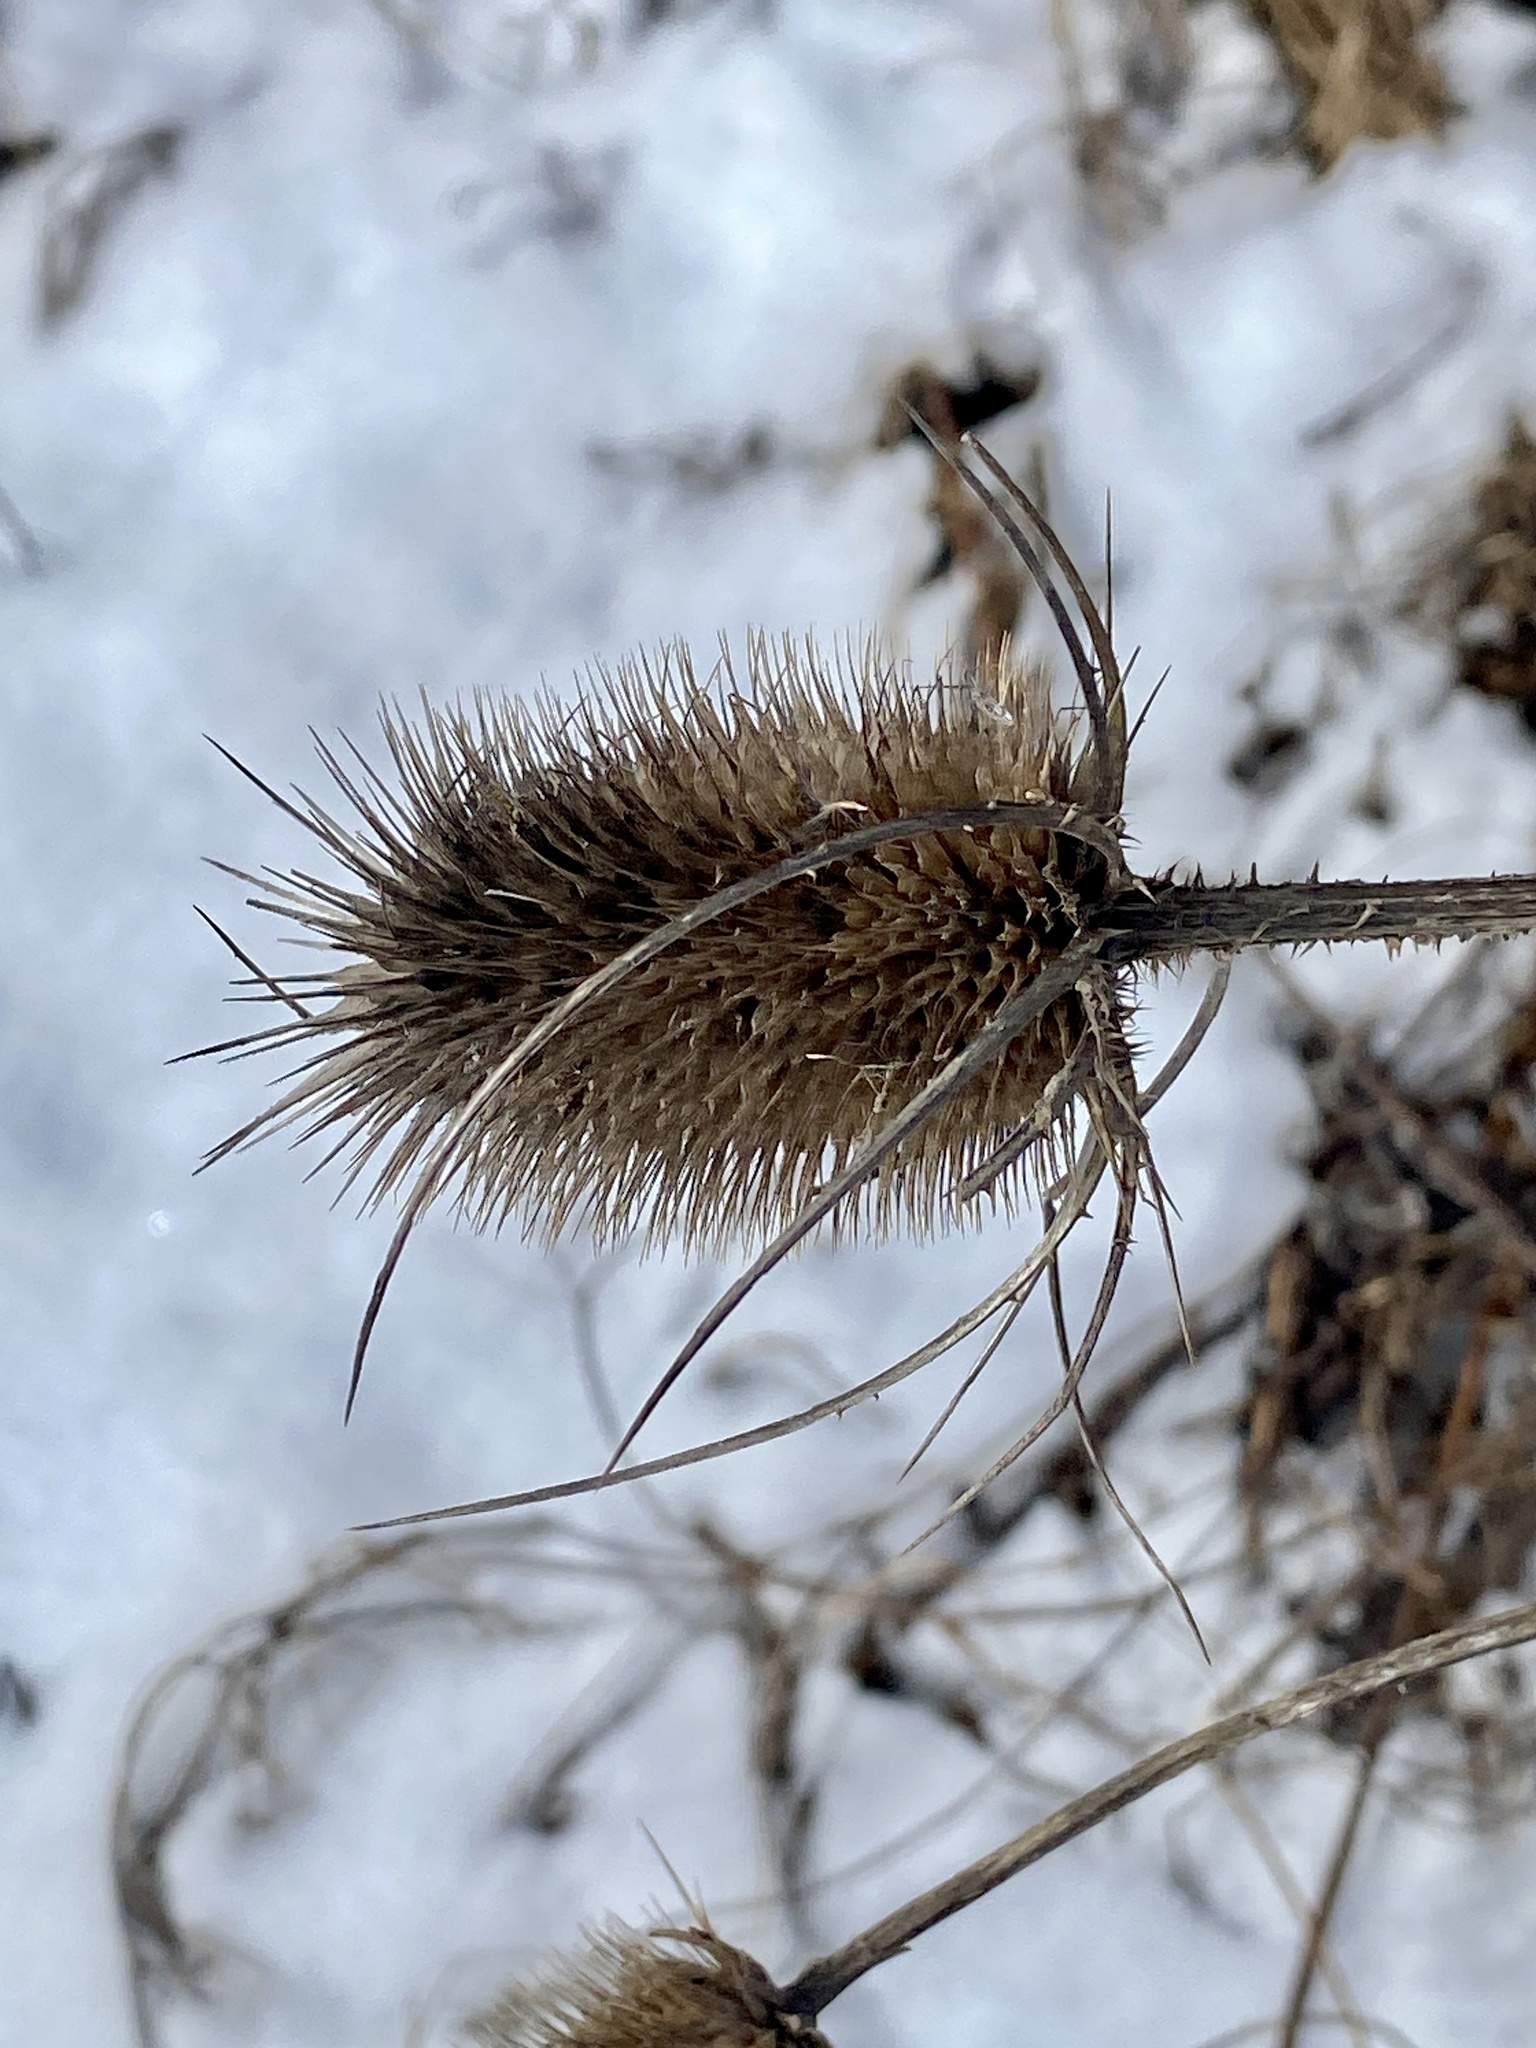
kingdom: Plantae
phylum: Tracheophyta
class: Magnoliopsida
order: Dipsacales
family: Caprifoliaceae
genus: Dipsacus
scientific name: Dipsacus fullonum
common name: Teasel
